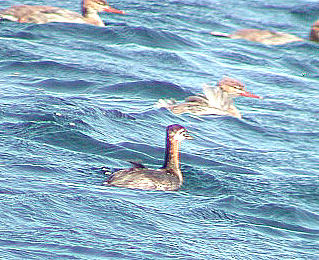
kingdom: Animalia
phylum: Chordata
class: Aves
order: Podicipediformes
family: Podicipedidae
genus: Podiceps
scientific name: Podiceps grisegena
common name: Red-necked grebe
